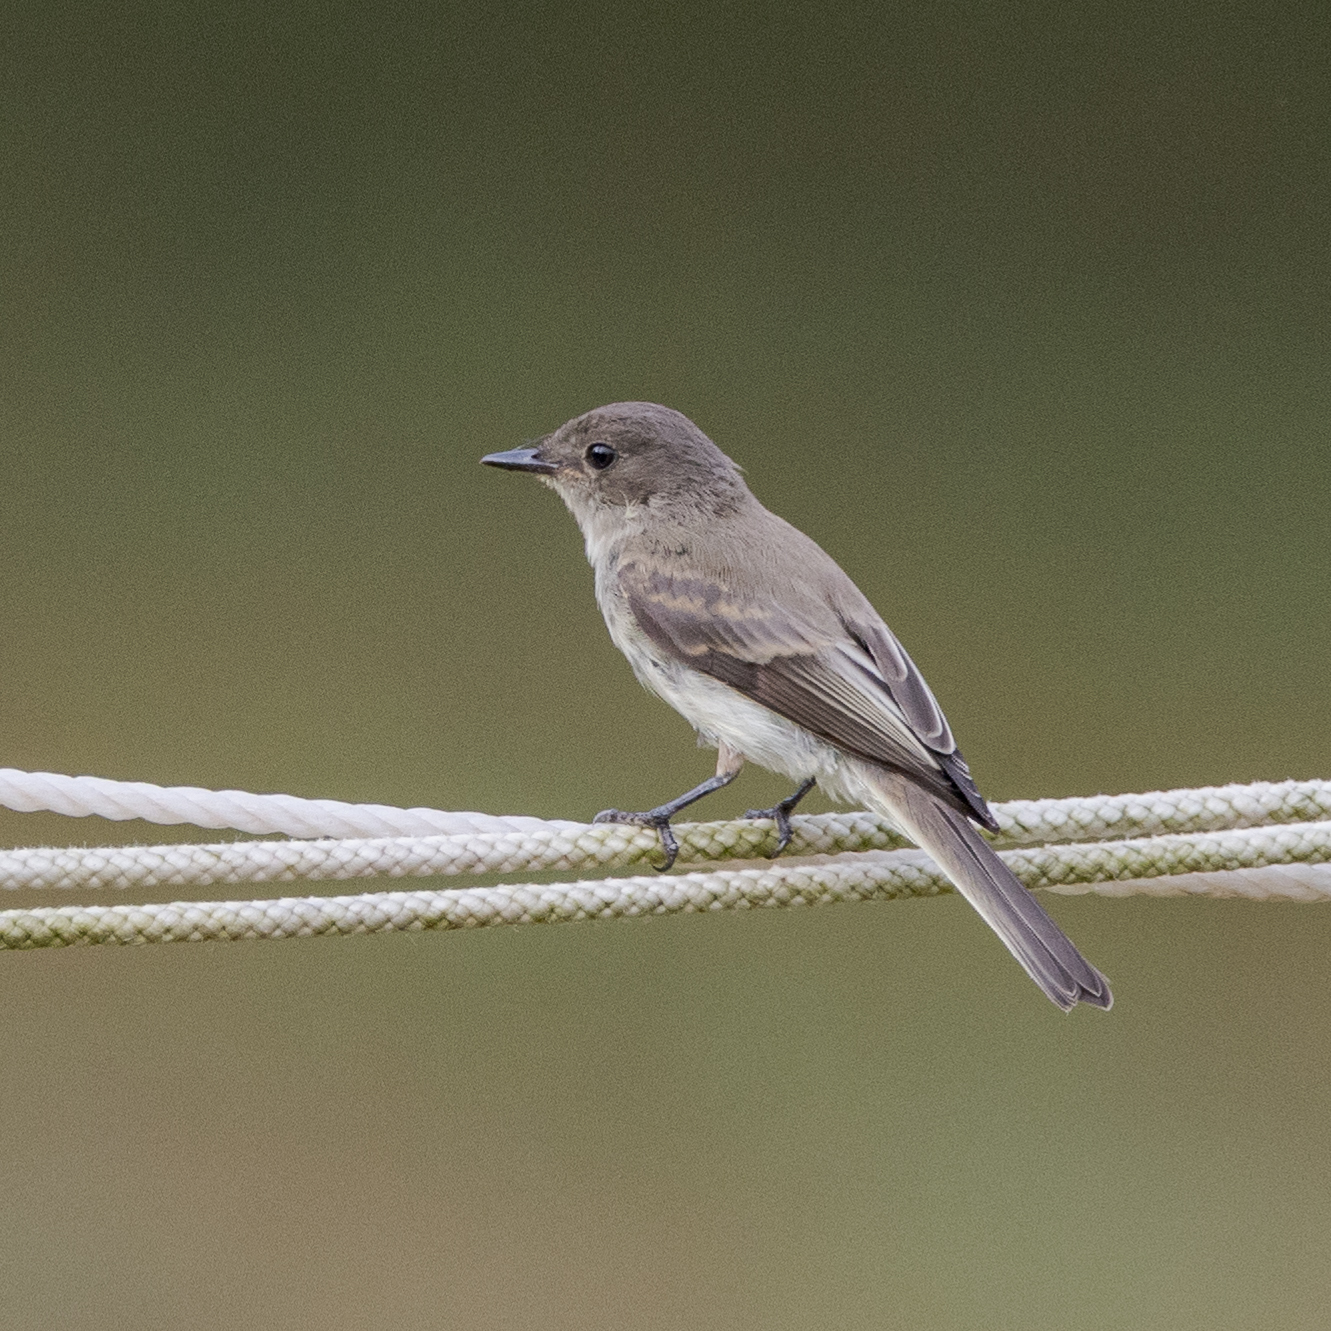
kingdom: Animalia
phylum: Chordata
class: Aves
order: Passeriformes
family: Tyrannidae
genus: Sayornis
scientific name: Sayornis phoebe
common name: Eastern phoebe
